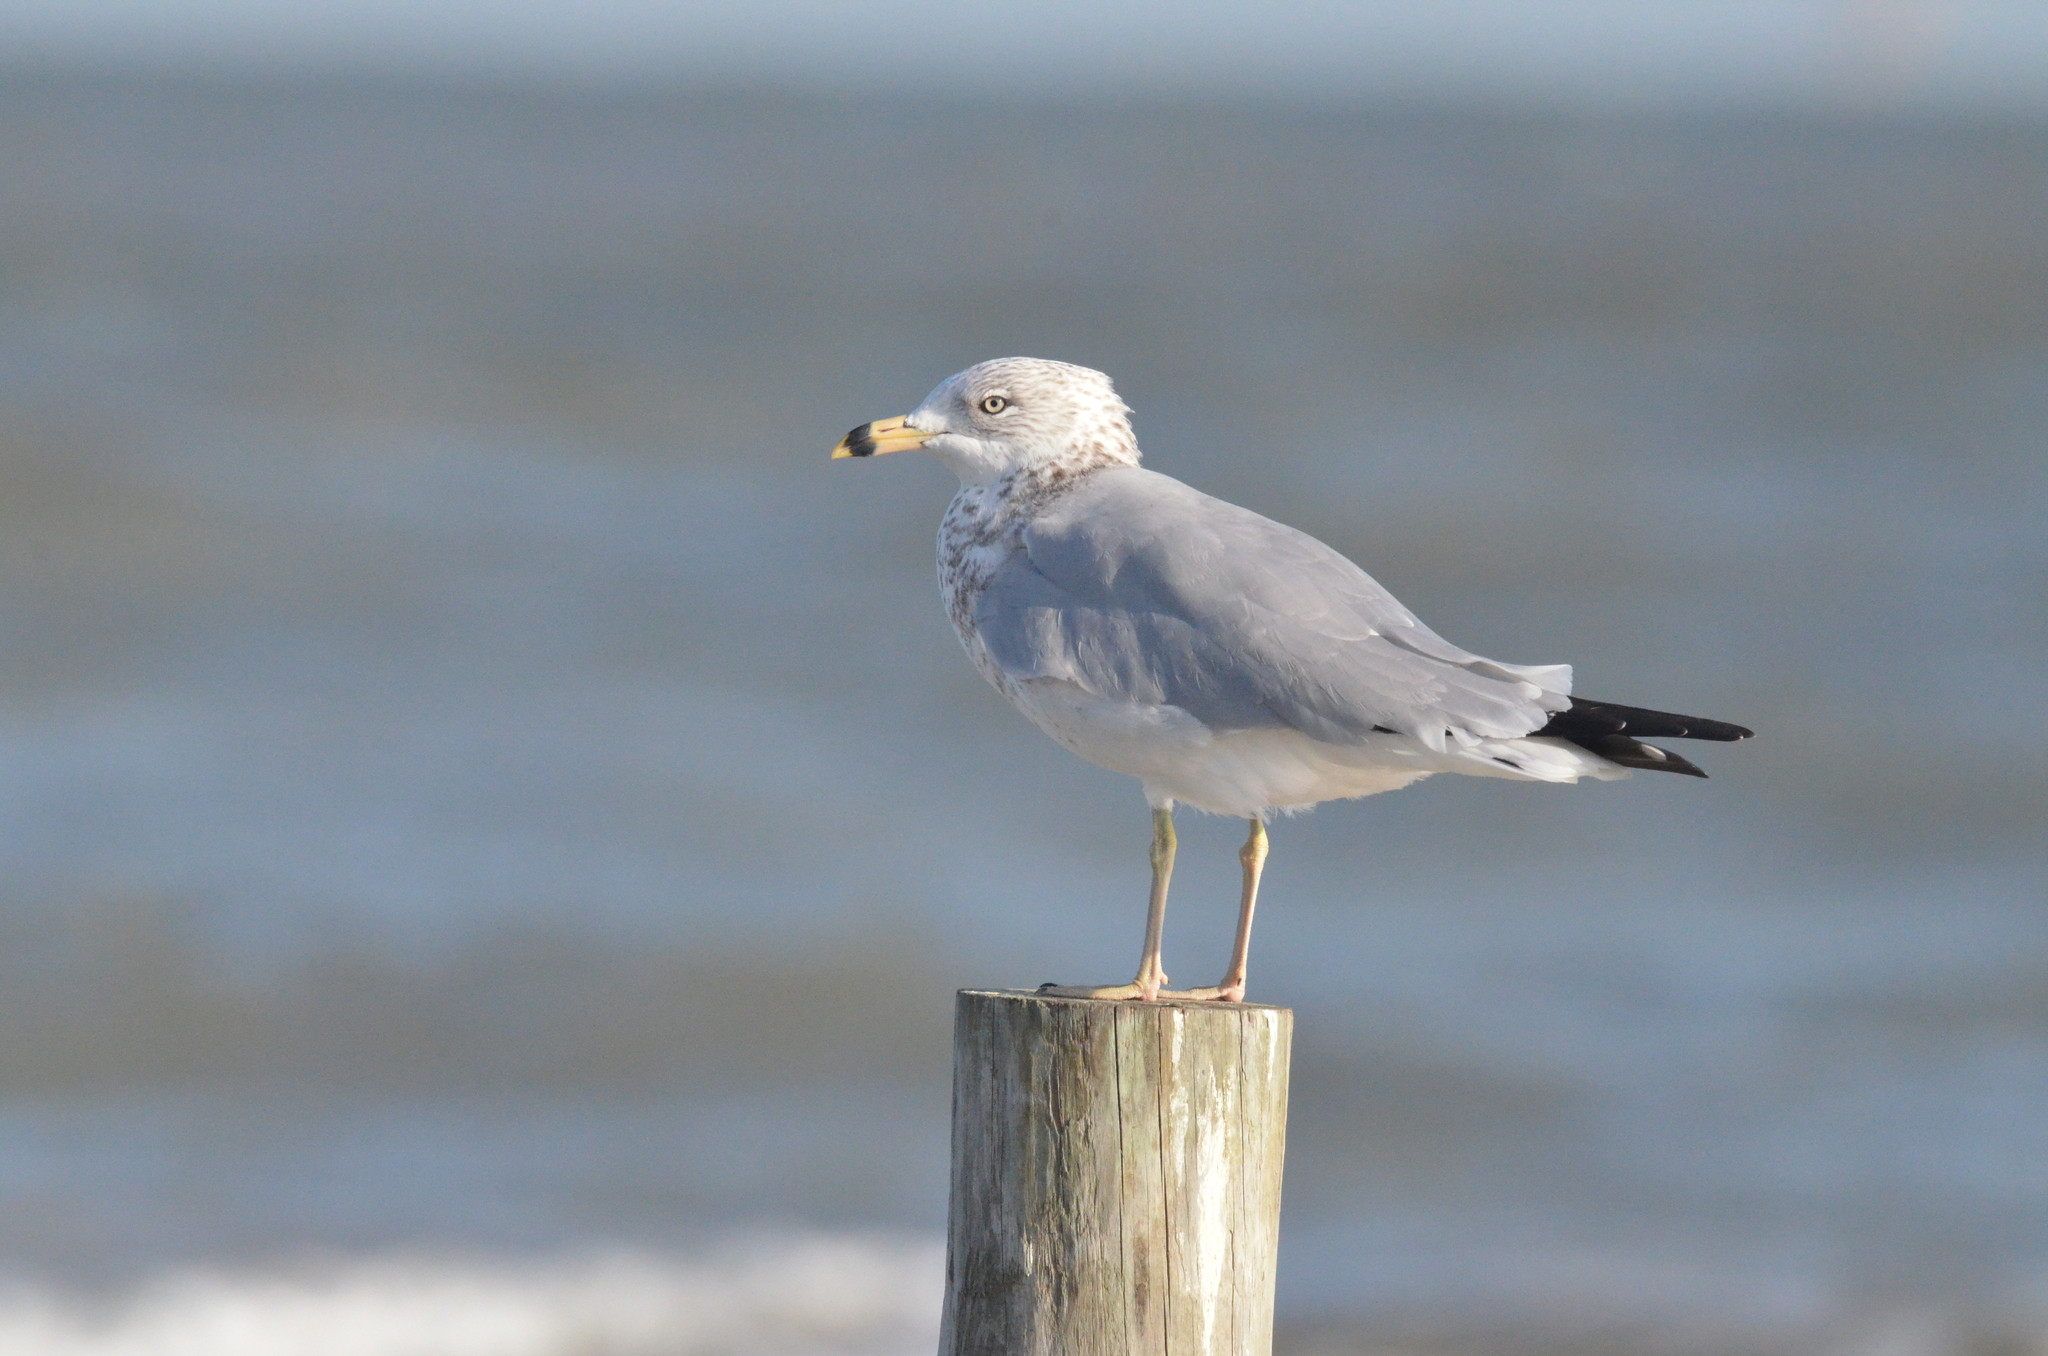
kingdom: Animalia
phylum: Chordata
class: Aves
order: Charadriiformes
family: Laridae
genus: Larus
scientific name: Larus delawarensis
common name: Ring-billed gull
